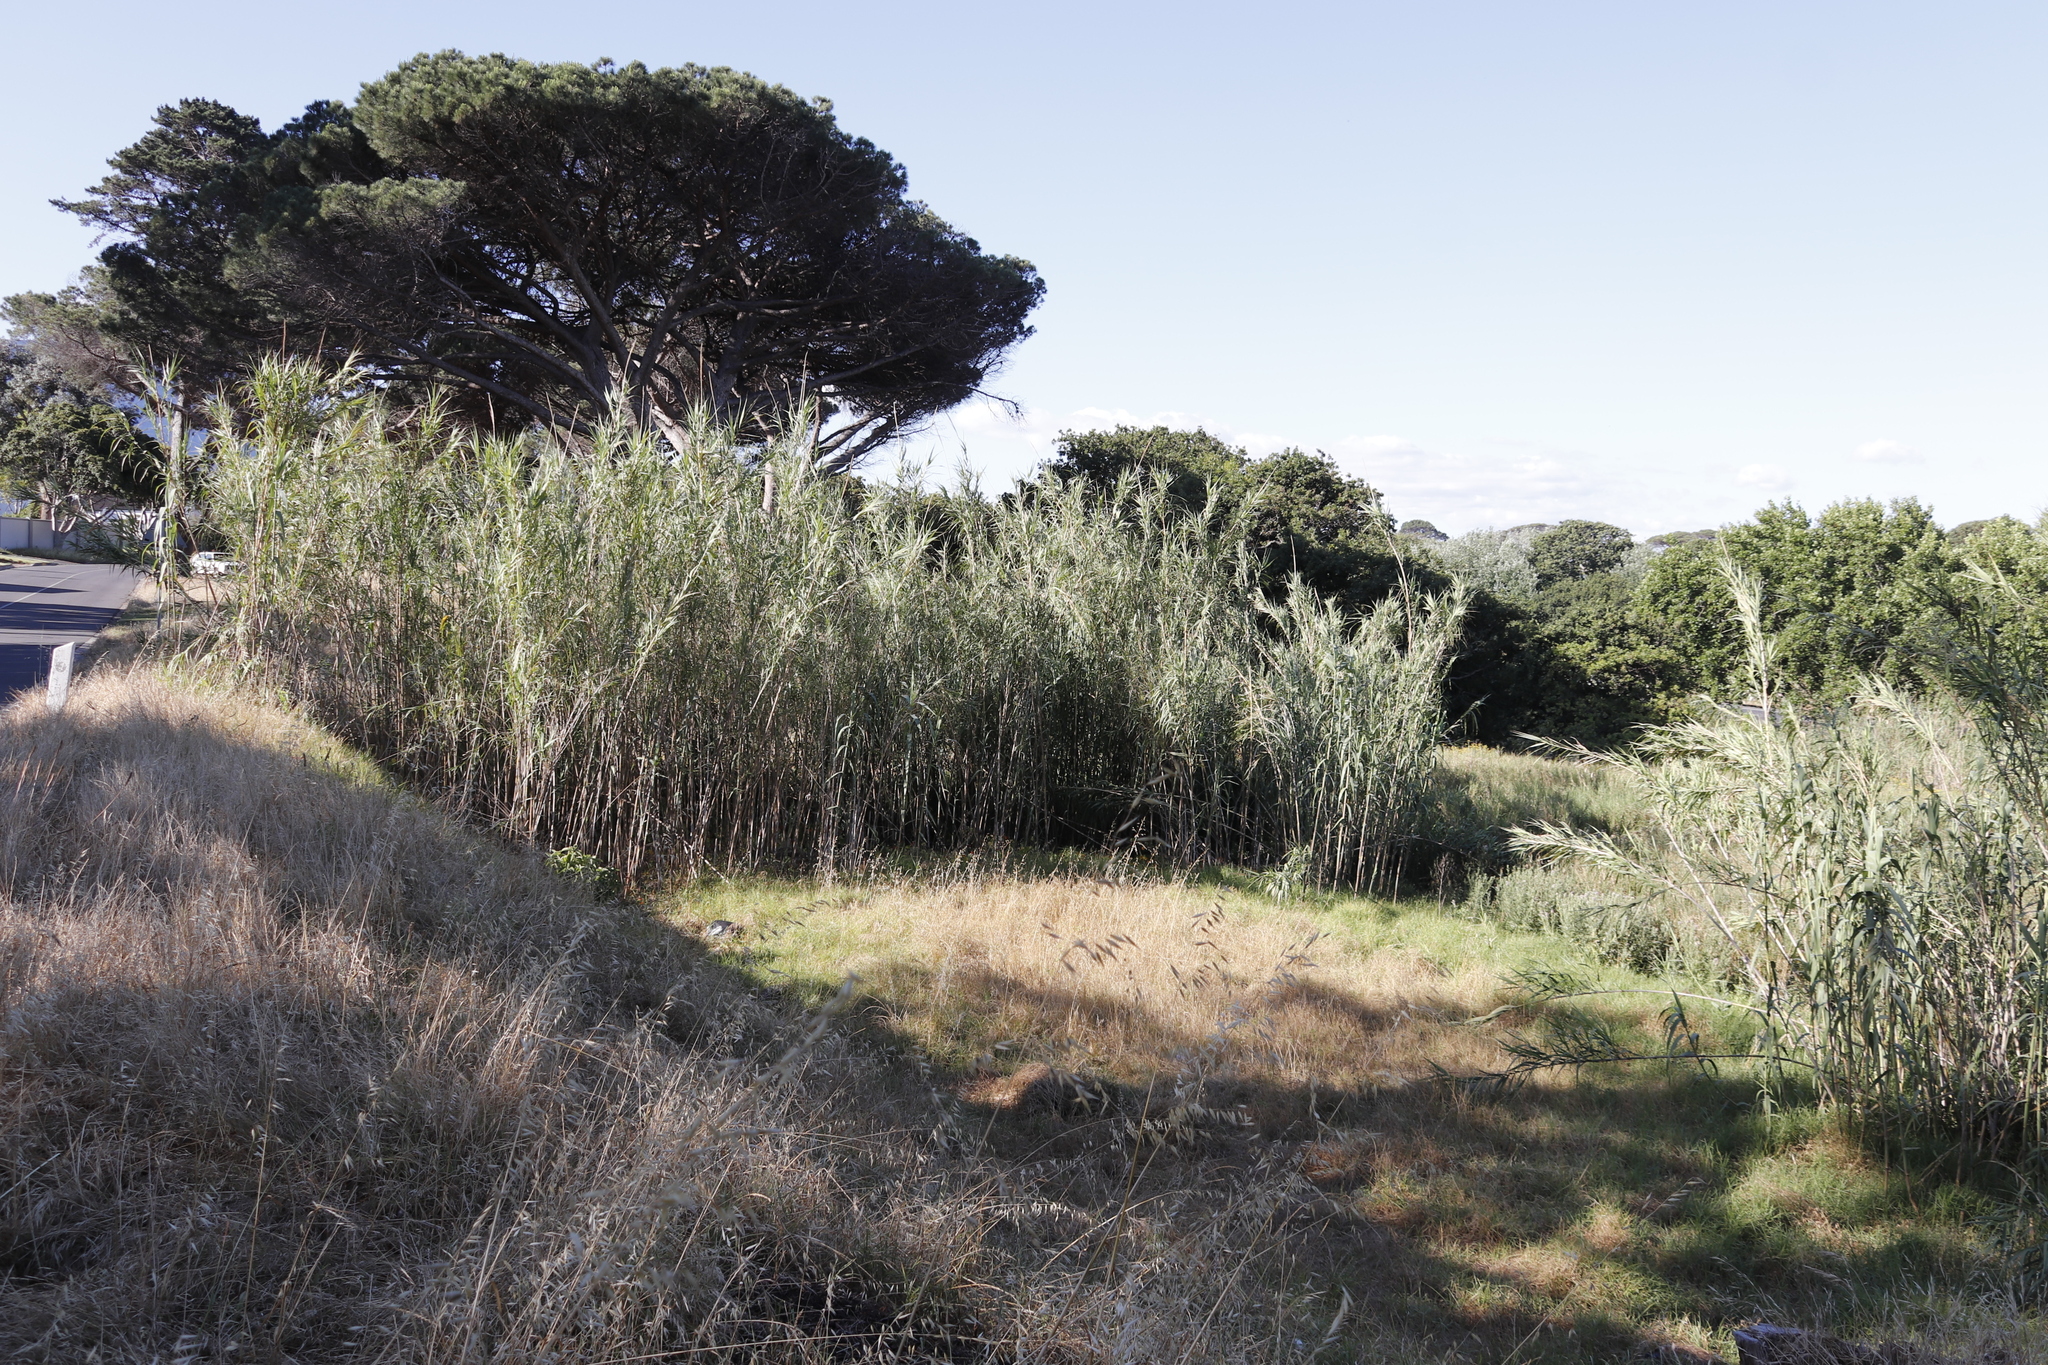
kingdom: Plantae
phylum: Tracheophyta
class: Liliopsida
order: Poales
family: Poaceae
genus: Avena
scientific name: Avena fatua
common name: Wild oat
